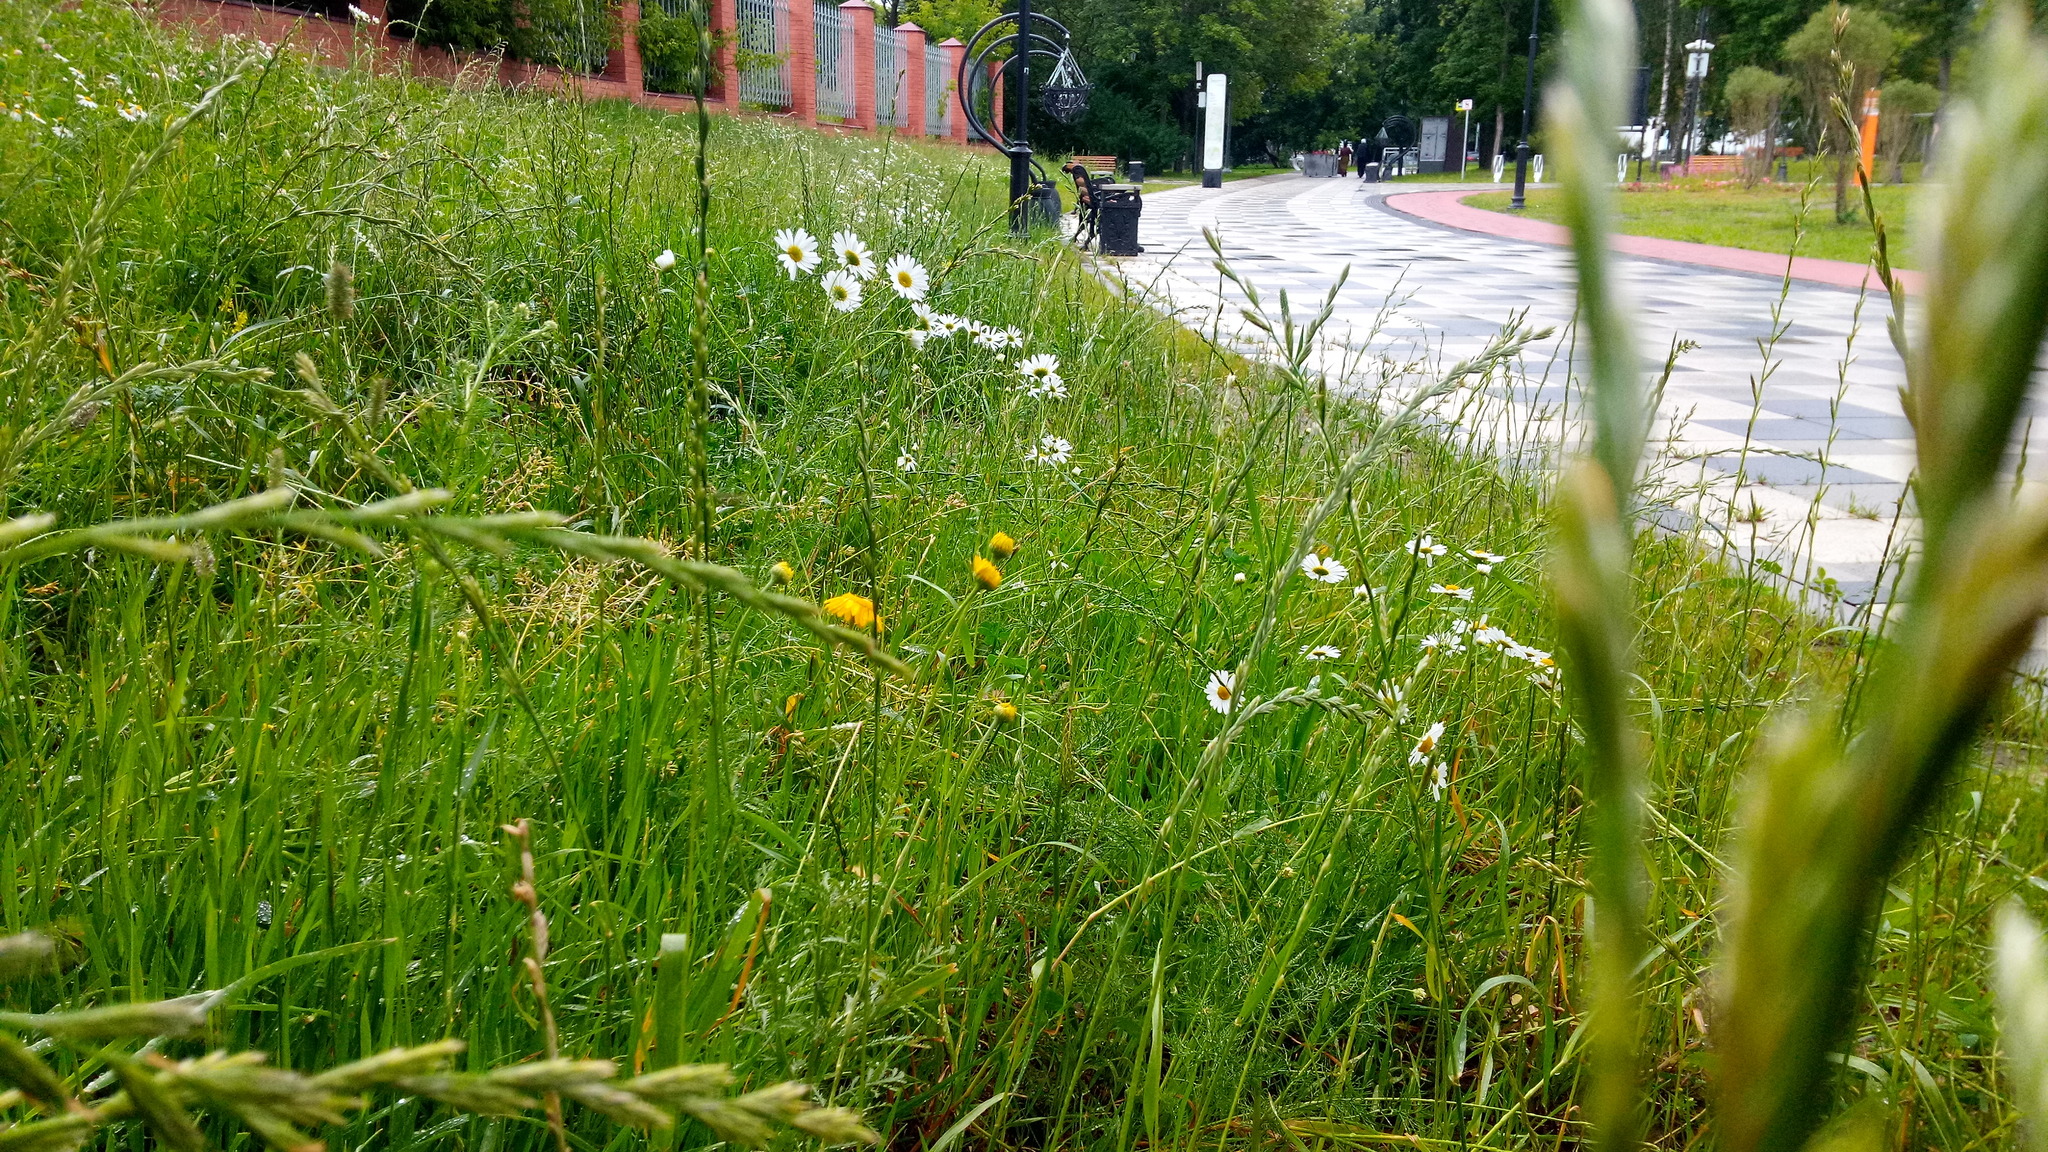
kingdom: Plantae
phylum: Tracheophyta
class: Magnoliopsida
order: Asterales
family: Asteraceae
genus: Cota
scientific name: Cota tinctoria
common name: Golden chamomile
